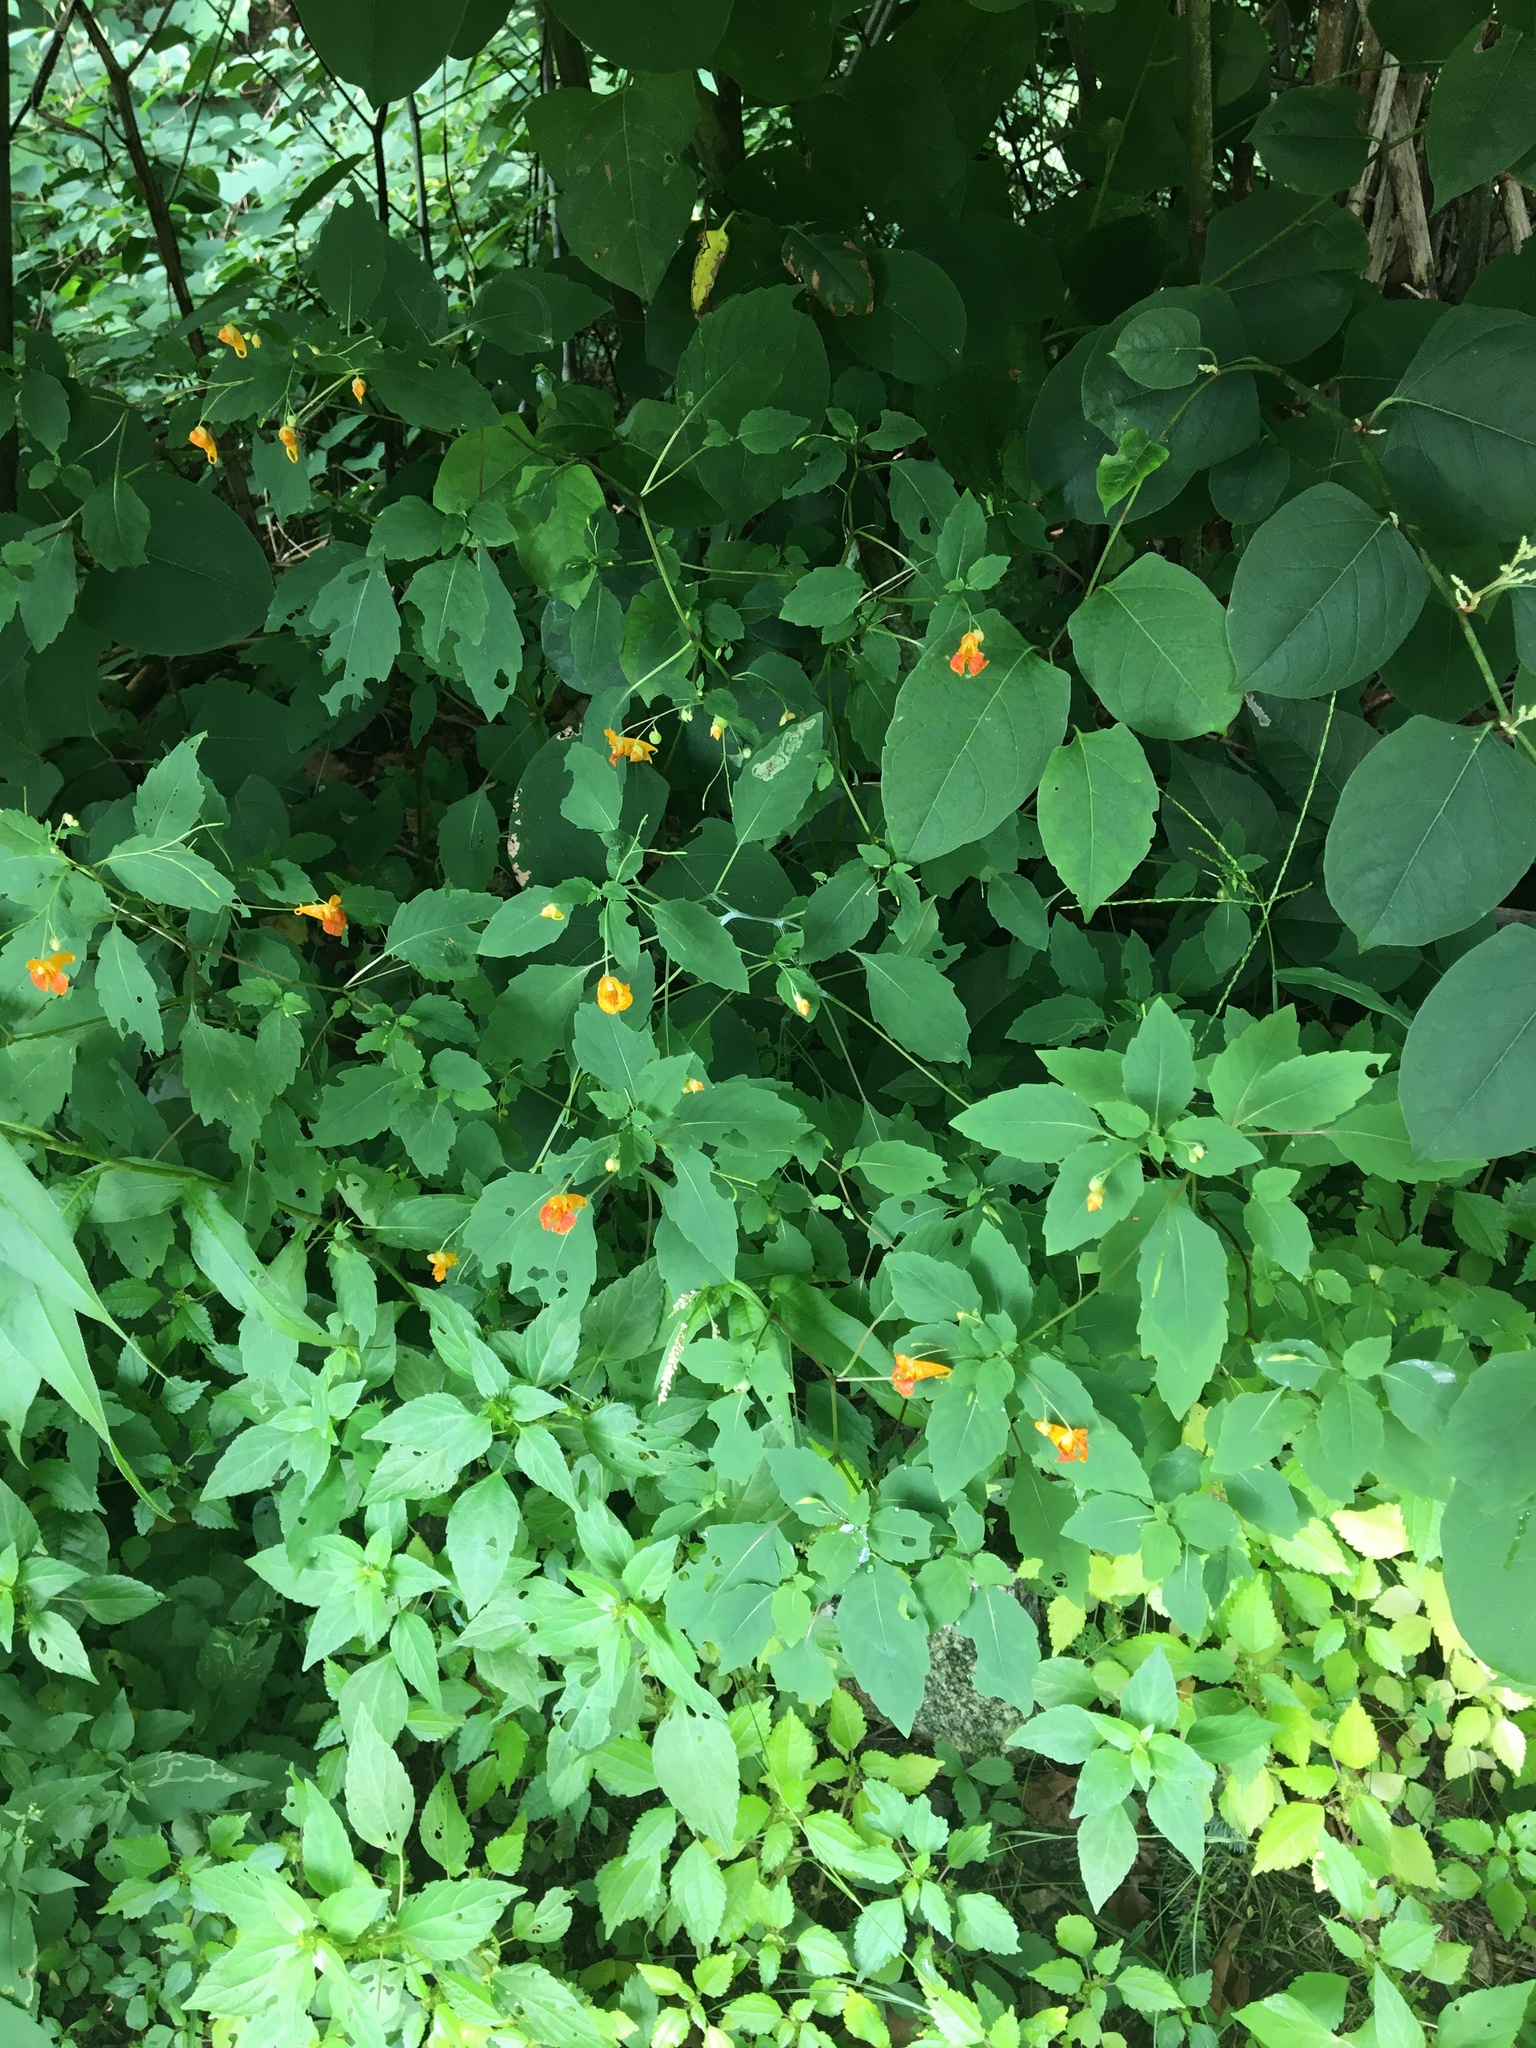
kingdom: Plantae
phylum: Tracheophyta
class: Magnoliopsida
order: Ericales
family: Balsaminaceae
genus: Impatiens
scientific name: Impatiens capensis
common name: Orange balsam
